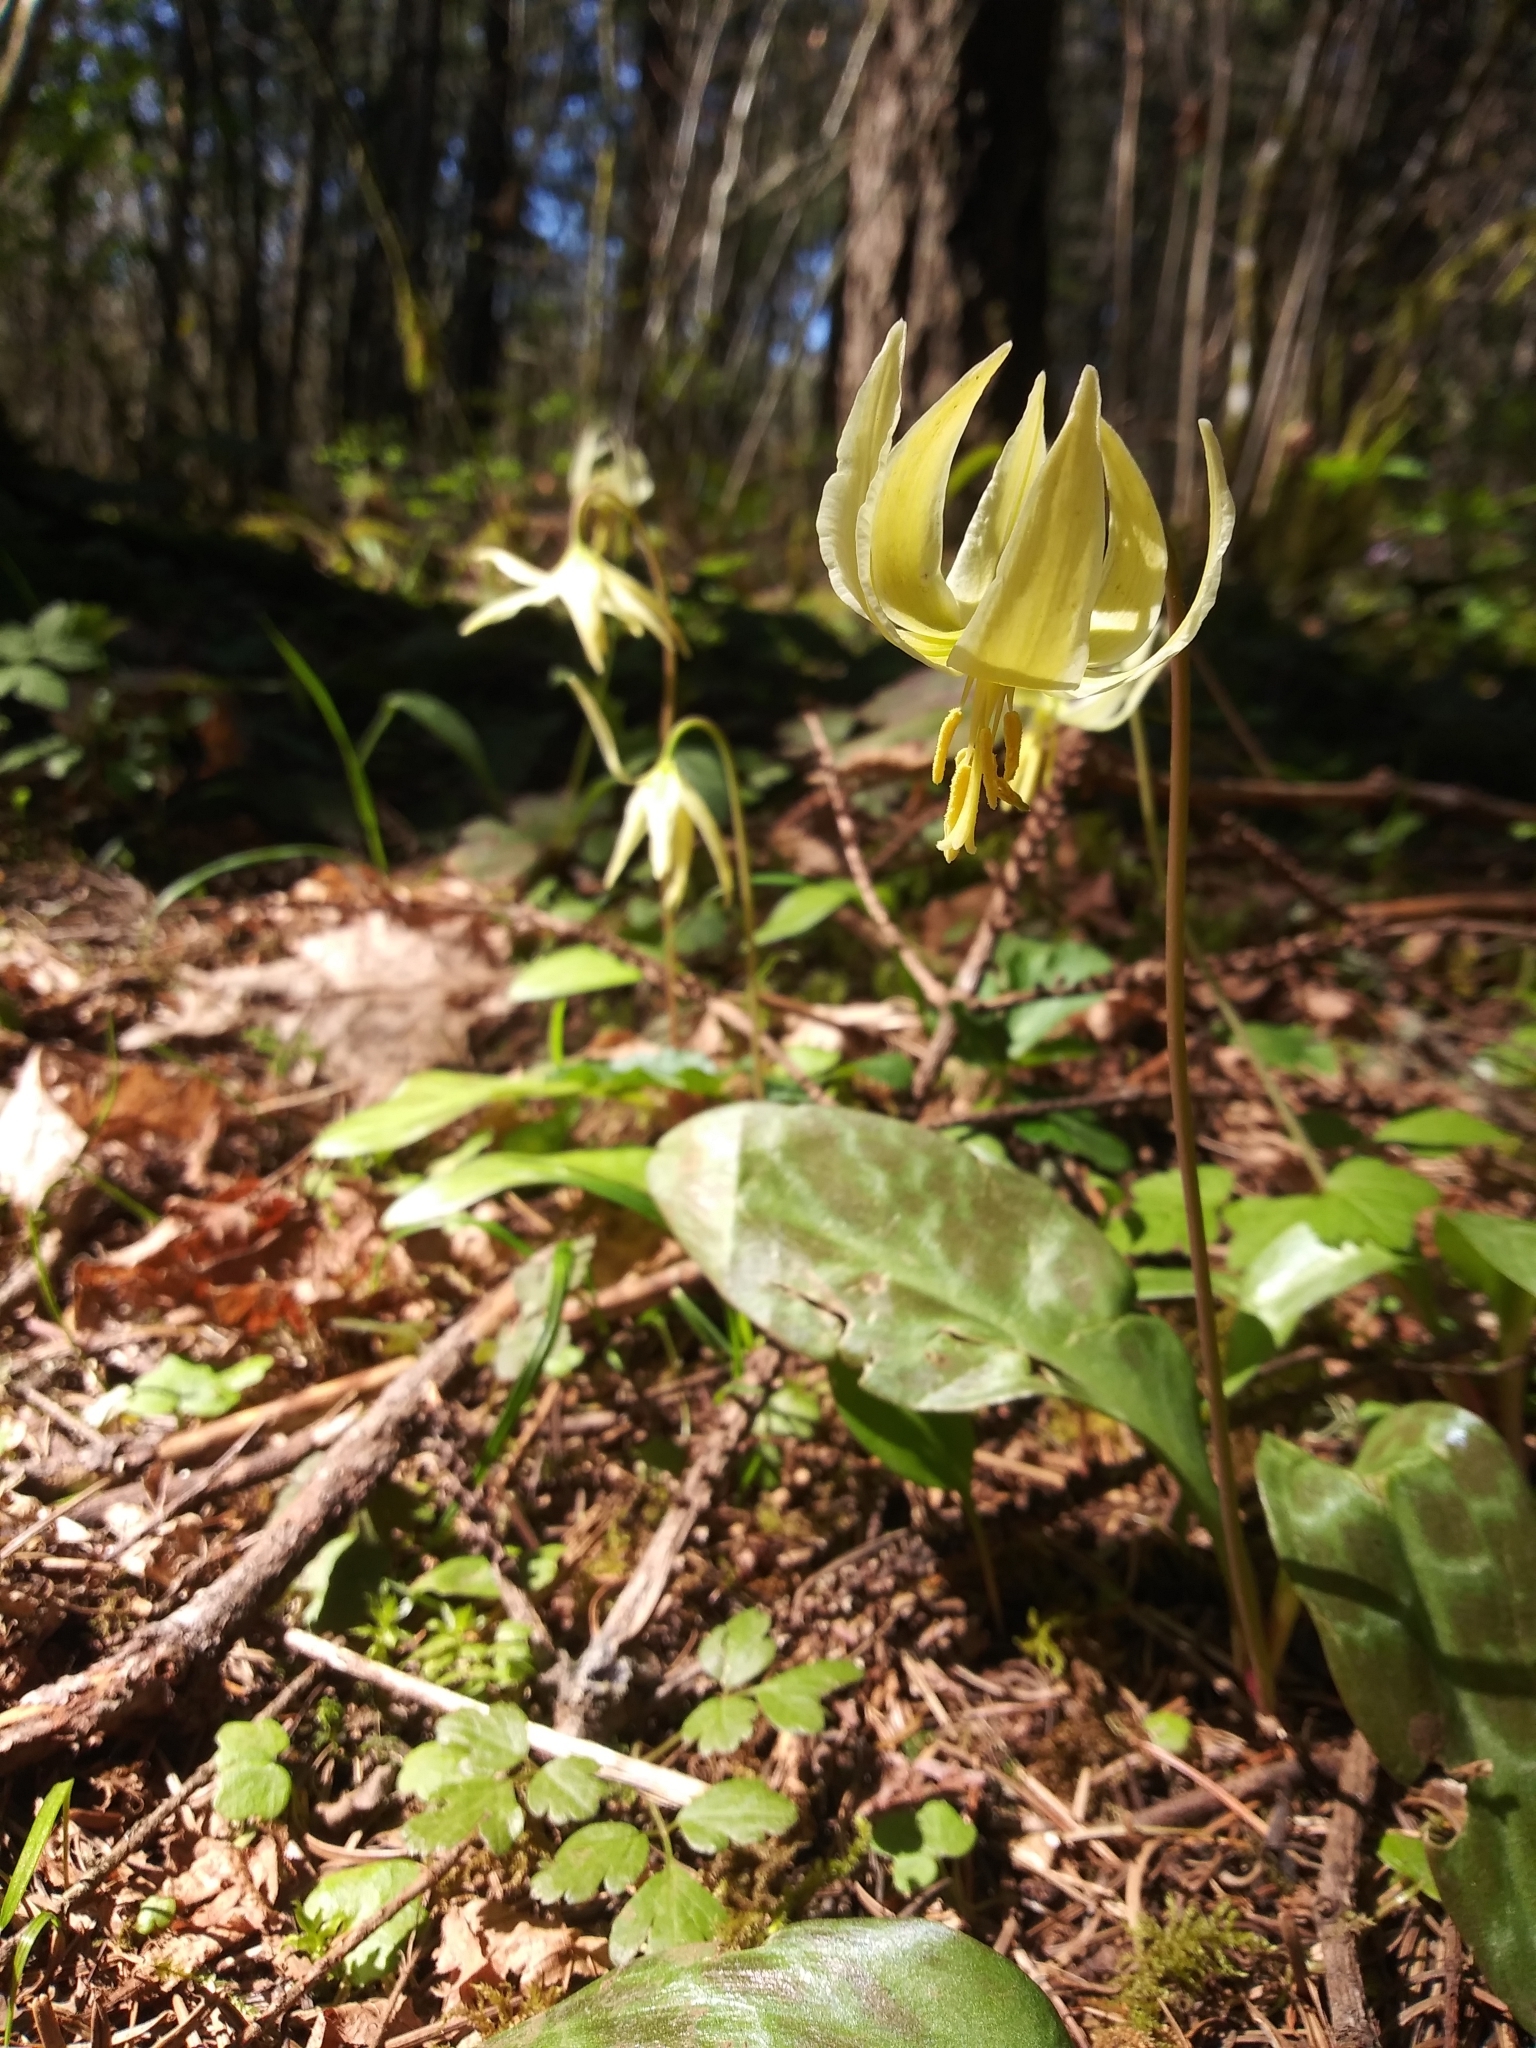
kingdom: Plantae
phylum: Tracheophyta
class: Liliopsida
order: Liliales
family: Liliaceae
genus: Erythronium
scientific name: Erythronium oregonum
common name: Giant adder's-tongue
